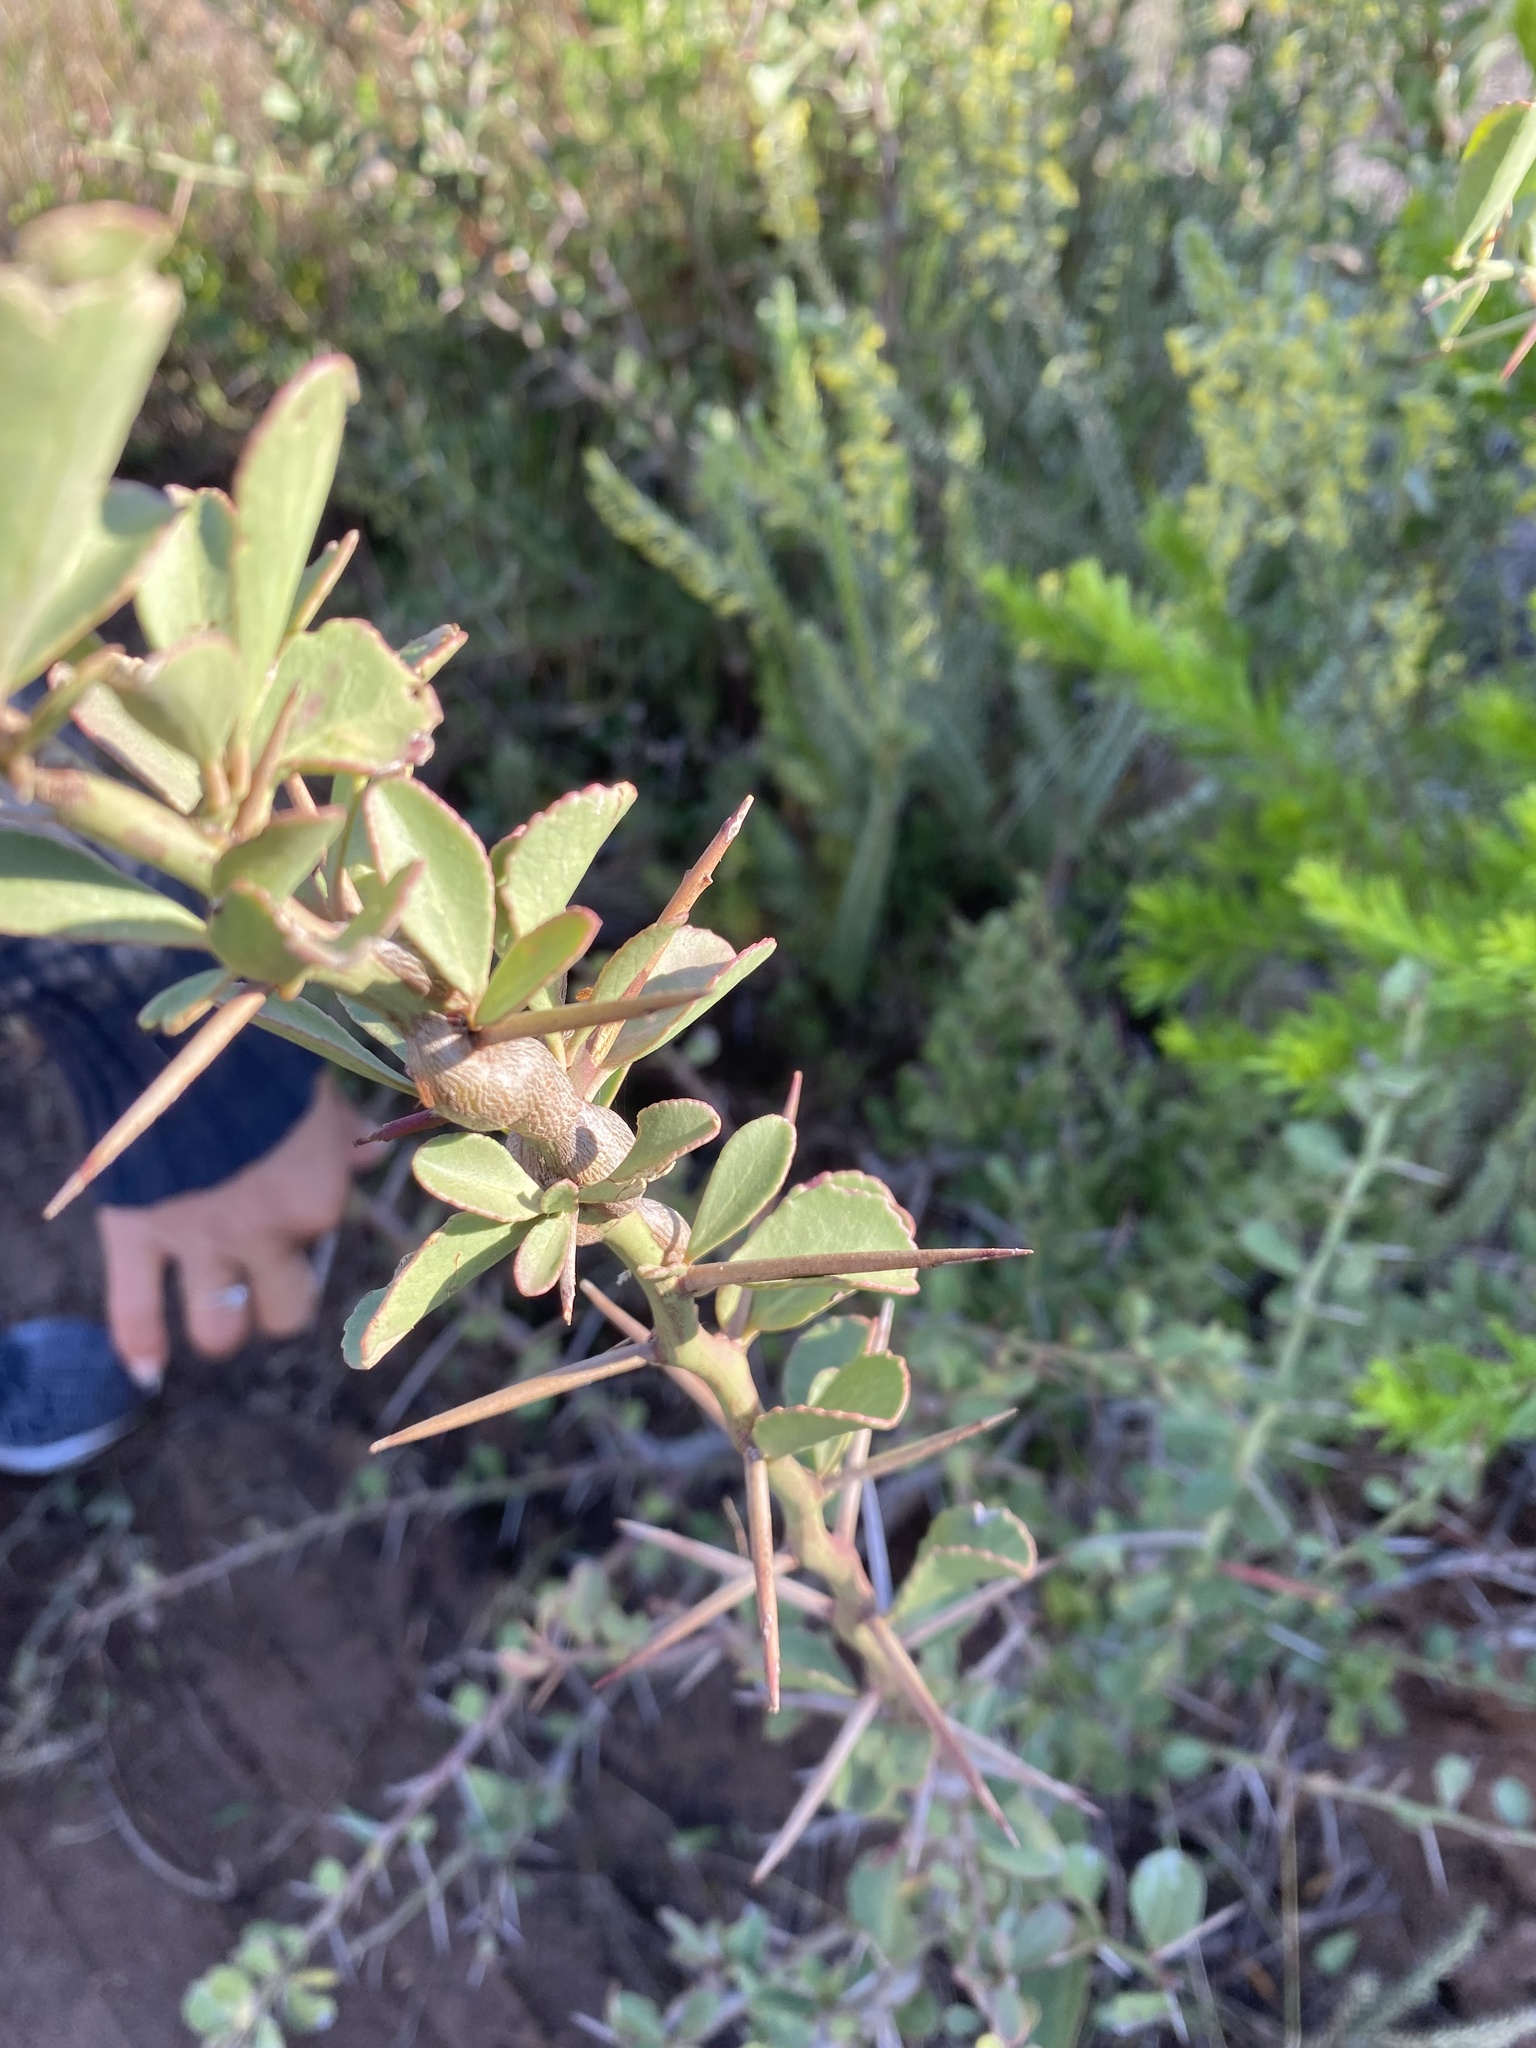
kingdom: Plantae
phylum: Tracheophyta
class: Magnoliopsida
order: Celastrales
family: Celastraceae
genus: Gymnosporia
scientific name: Gymnosporia buxifolia
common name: Common spike-thorn
